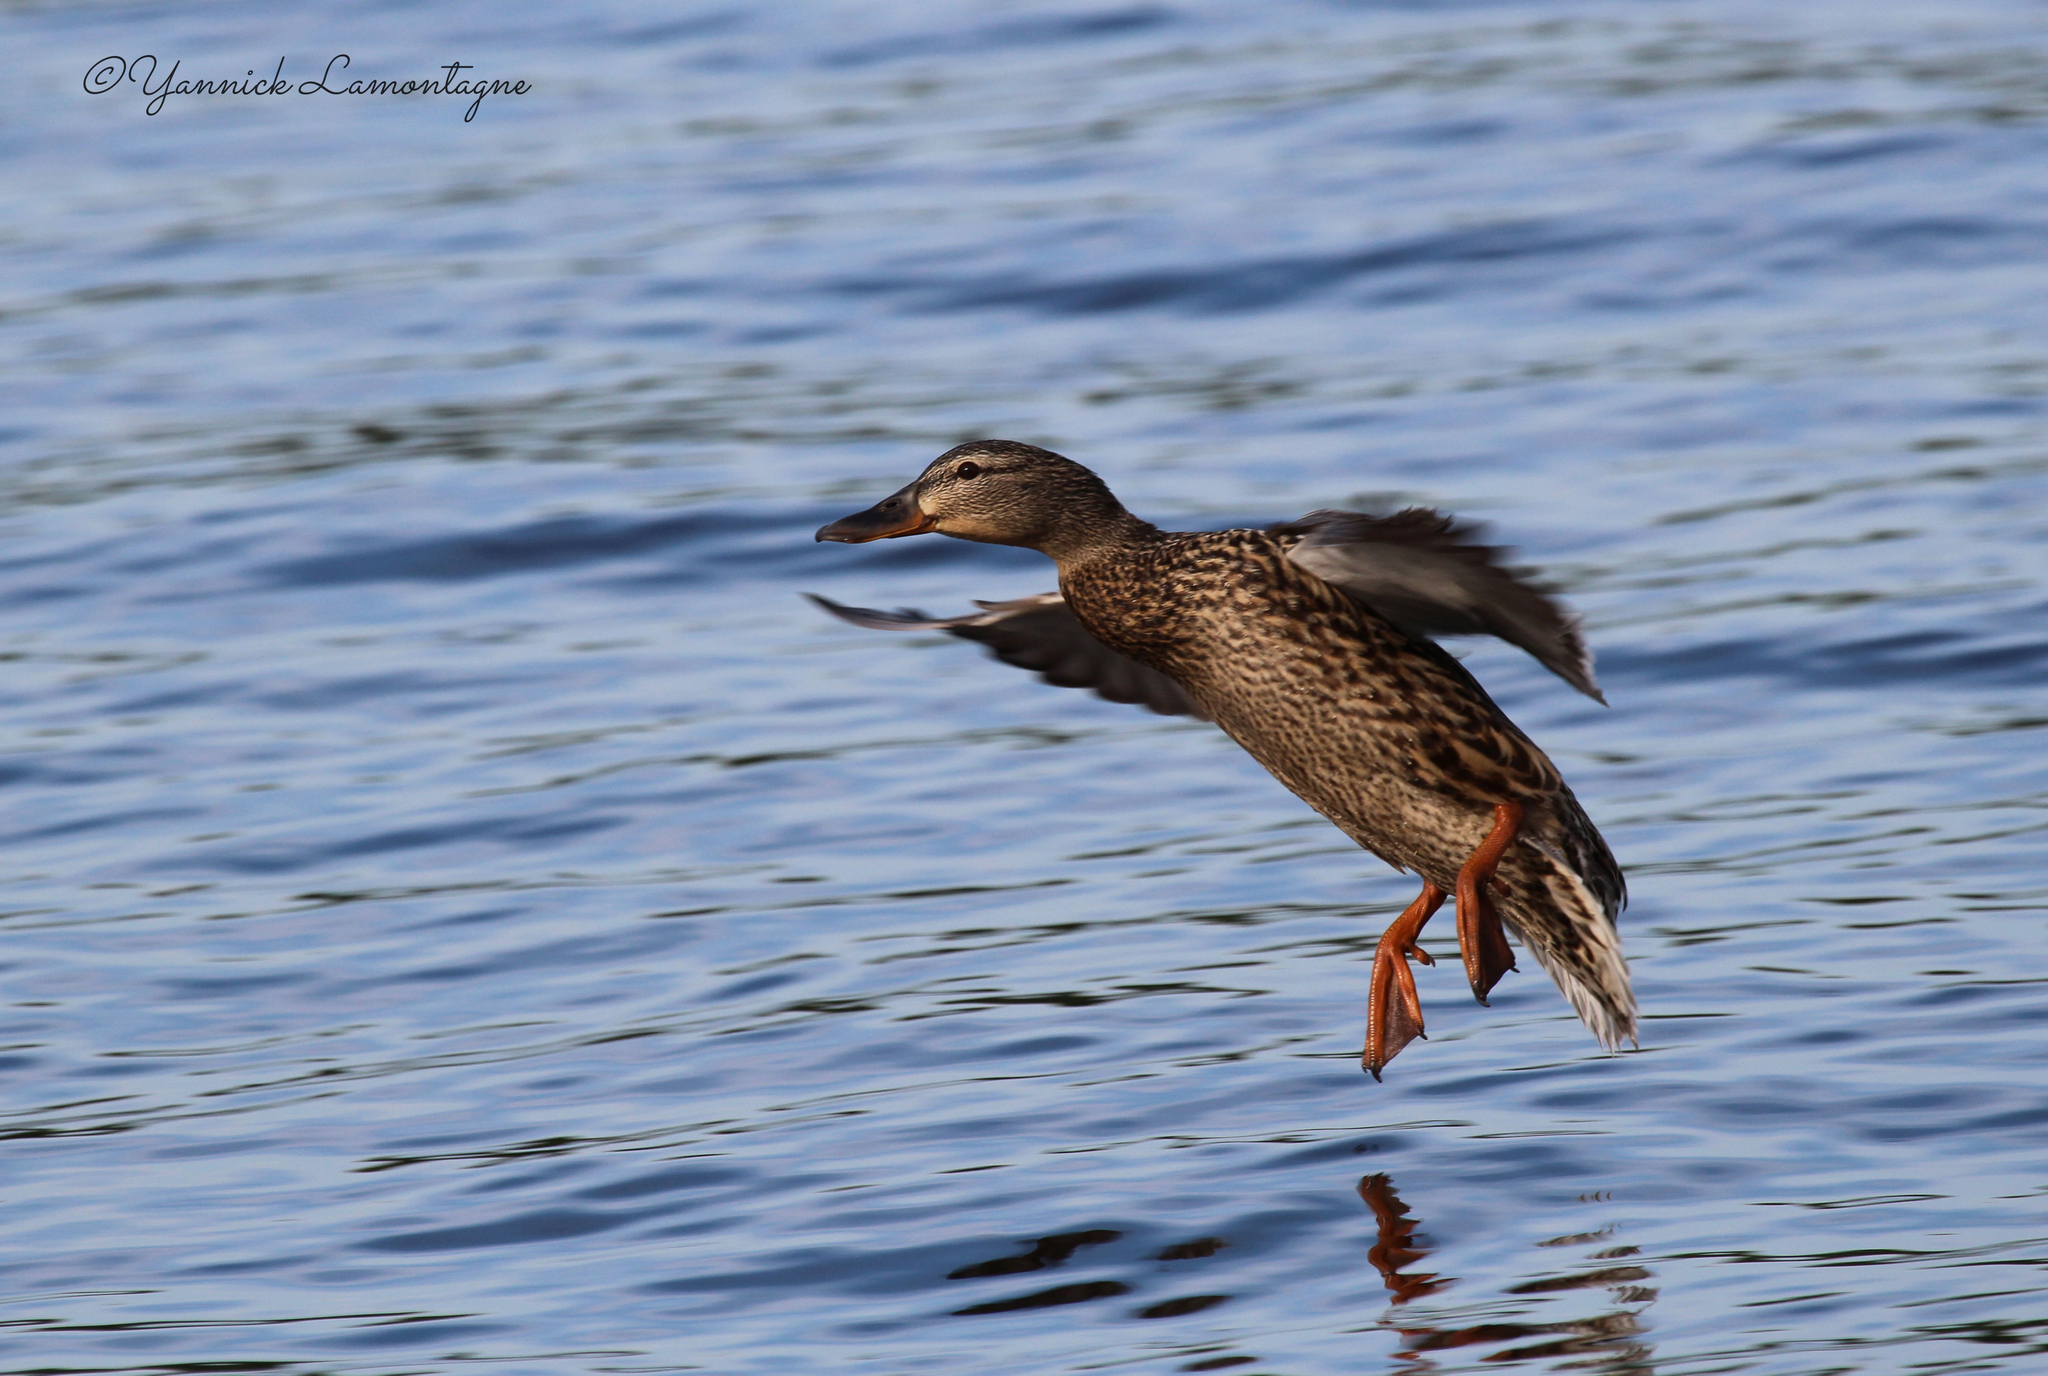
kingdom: Animalia
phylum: Chordata
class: Aves
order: Anseriformes
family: Anatidae
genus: Anas
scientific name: Anas platyrhynchos
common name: Mallard
